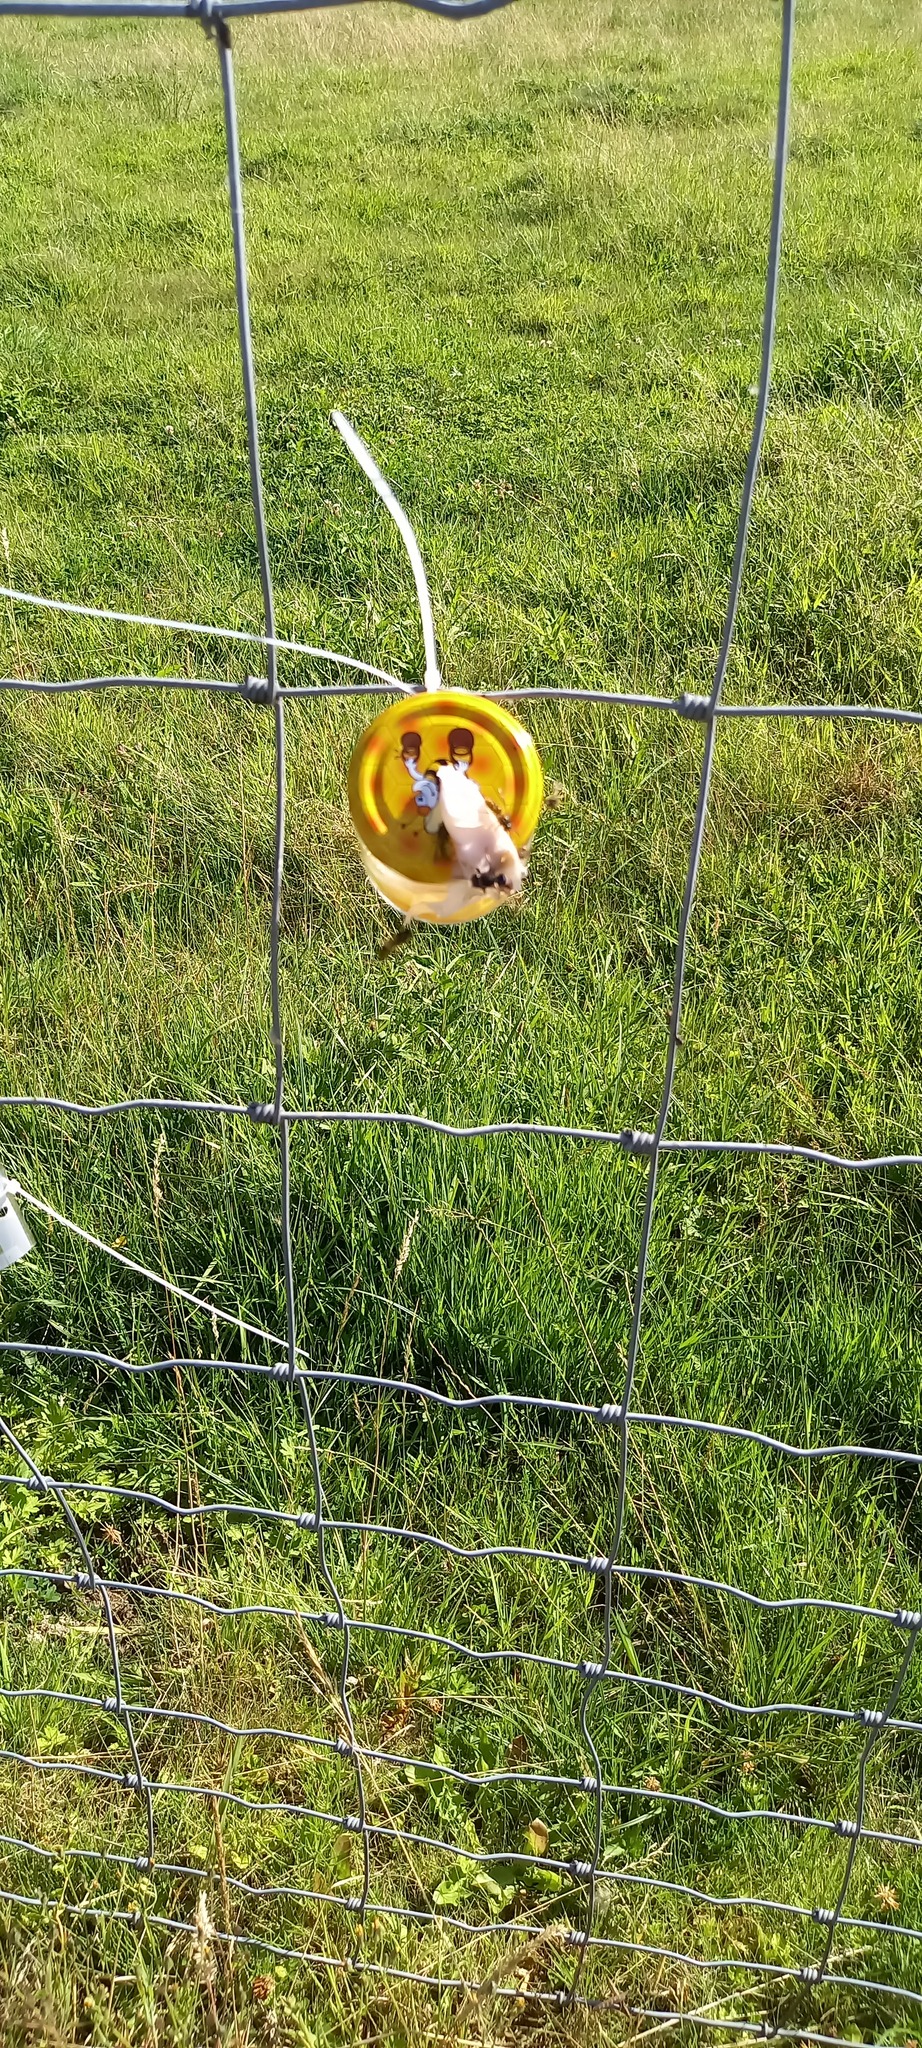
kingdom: Animalia
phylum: Arthropoda
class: Insecta
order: Hymenoptera
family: Vespidae
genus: Vespa
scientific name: Vespa velutina
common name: Asian hornet
